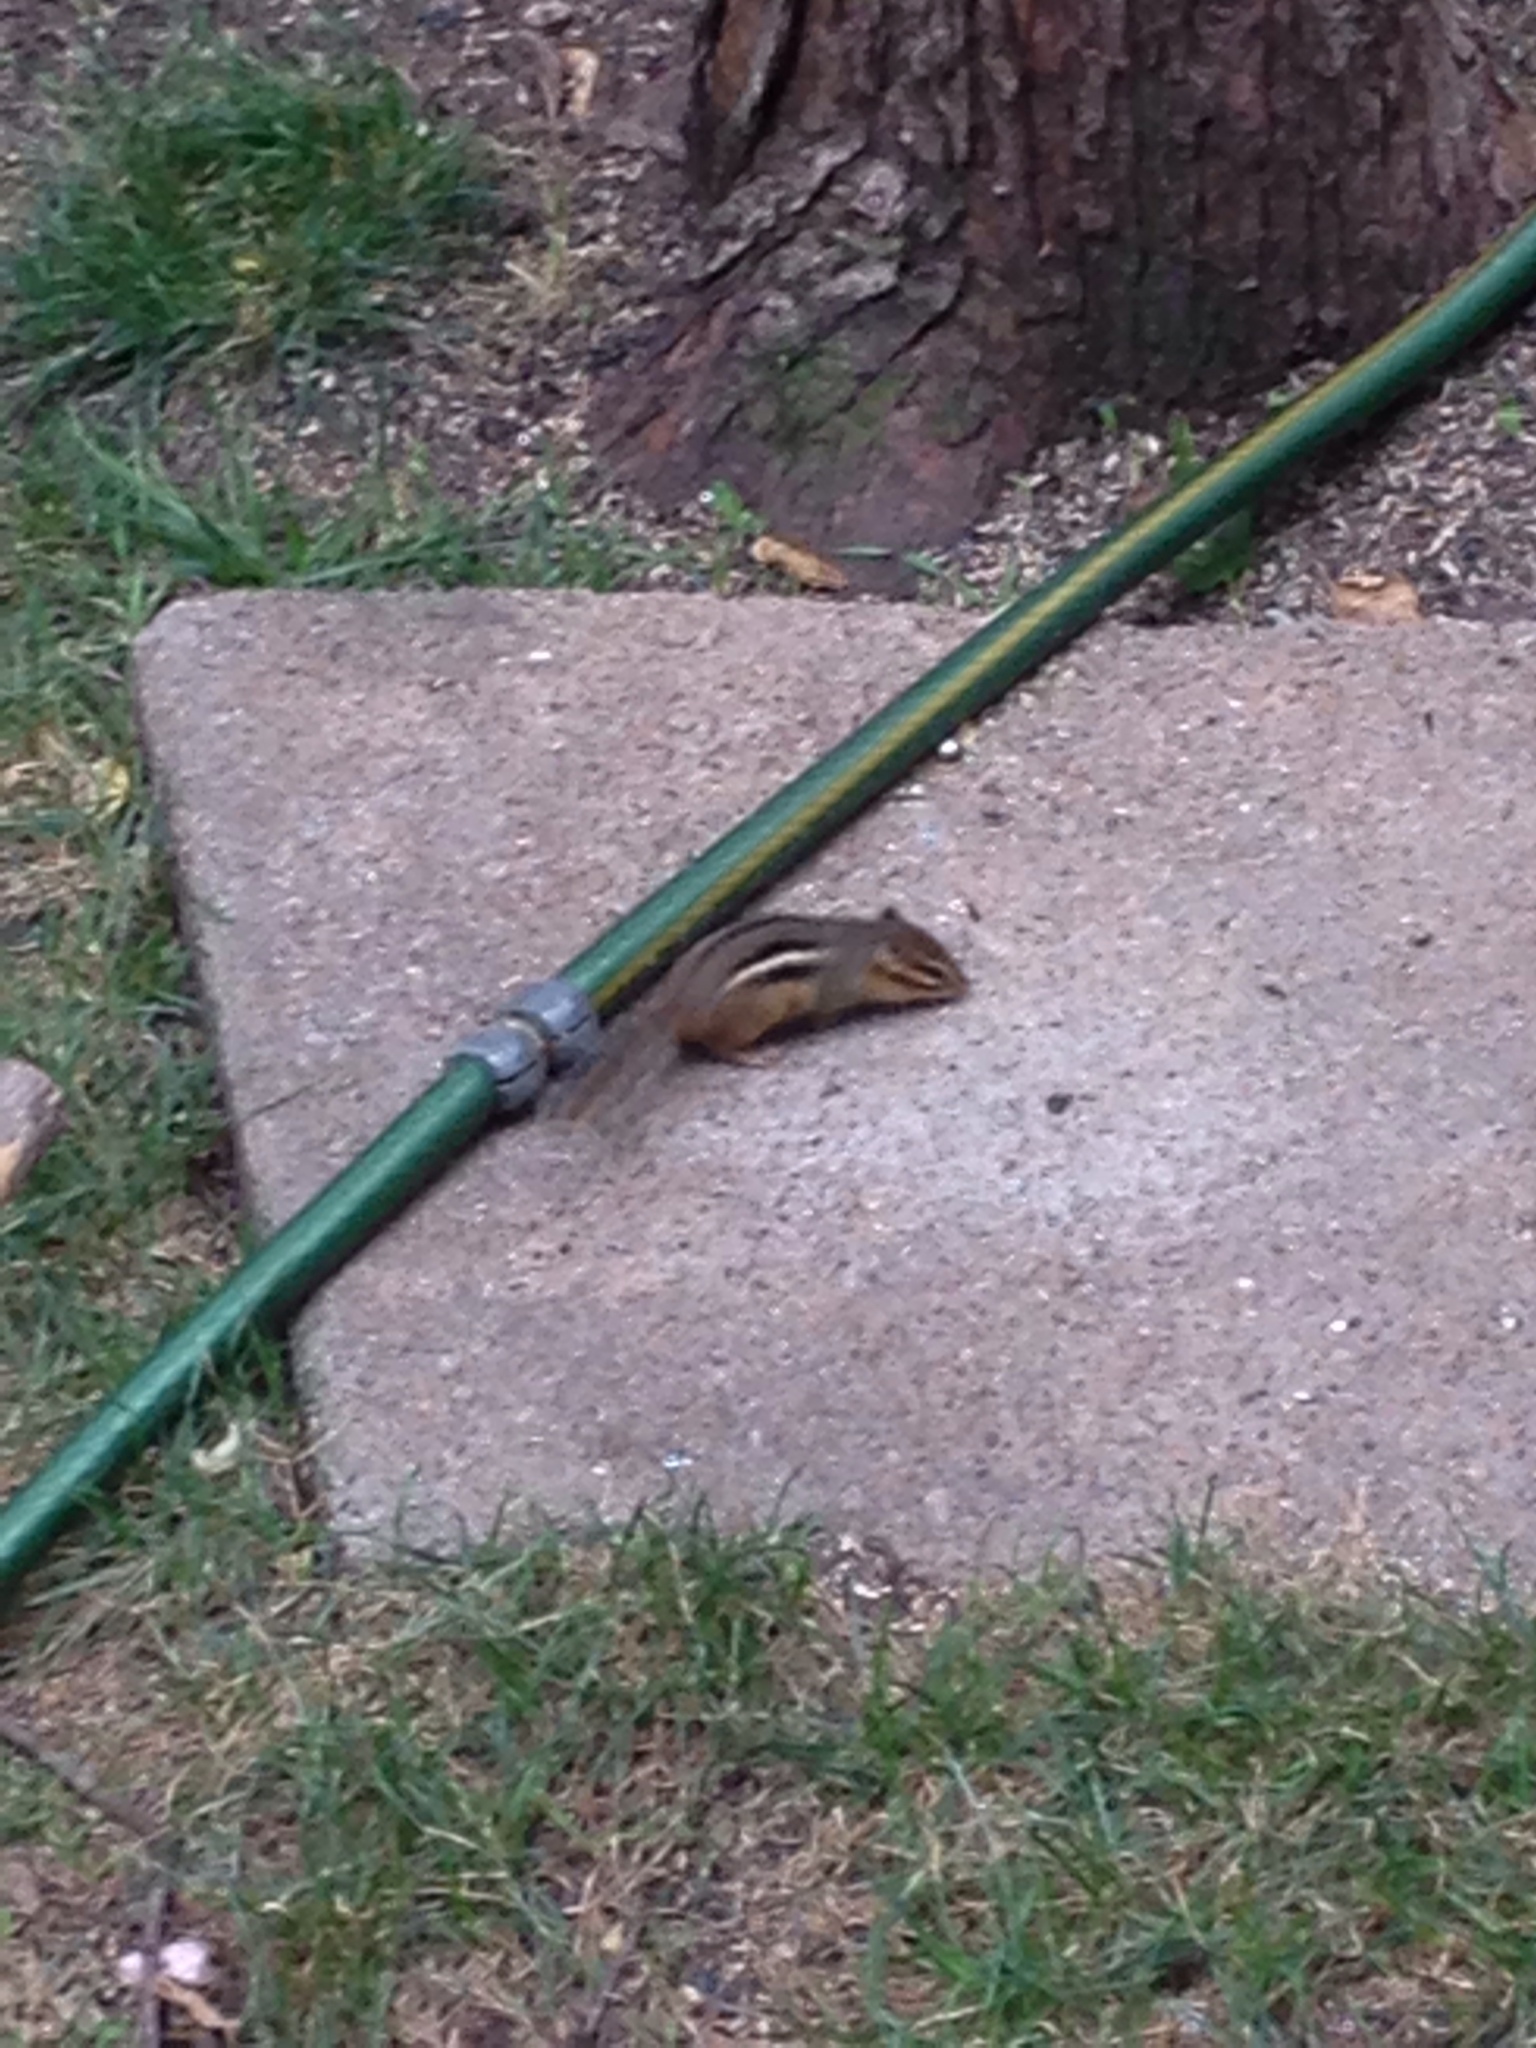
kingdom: Animalia
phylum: Chordata
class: Mammalia
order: Rodentia
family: Sciuridae
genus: Tamias
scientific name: Tamias striatus
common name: Eastern chipmunk
